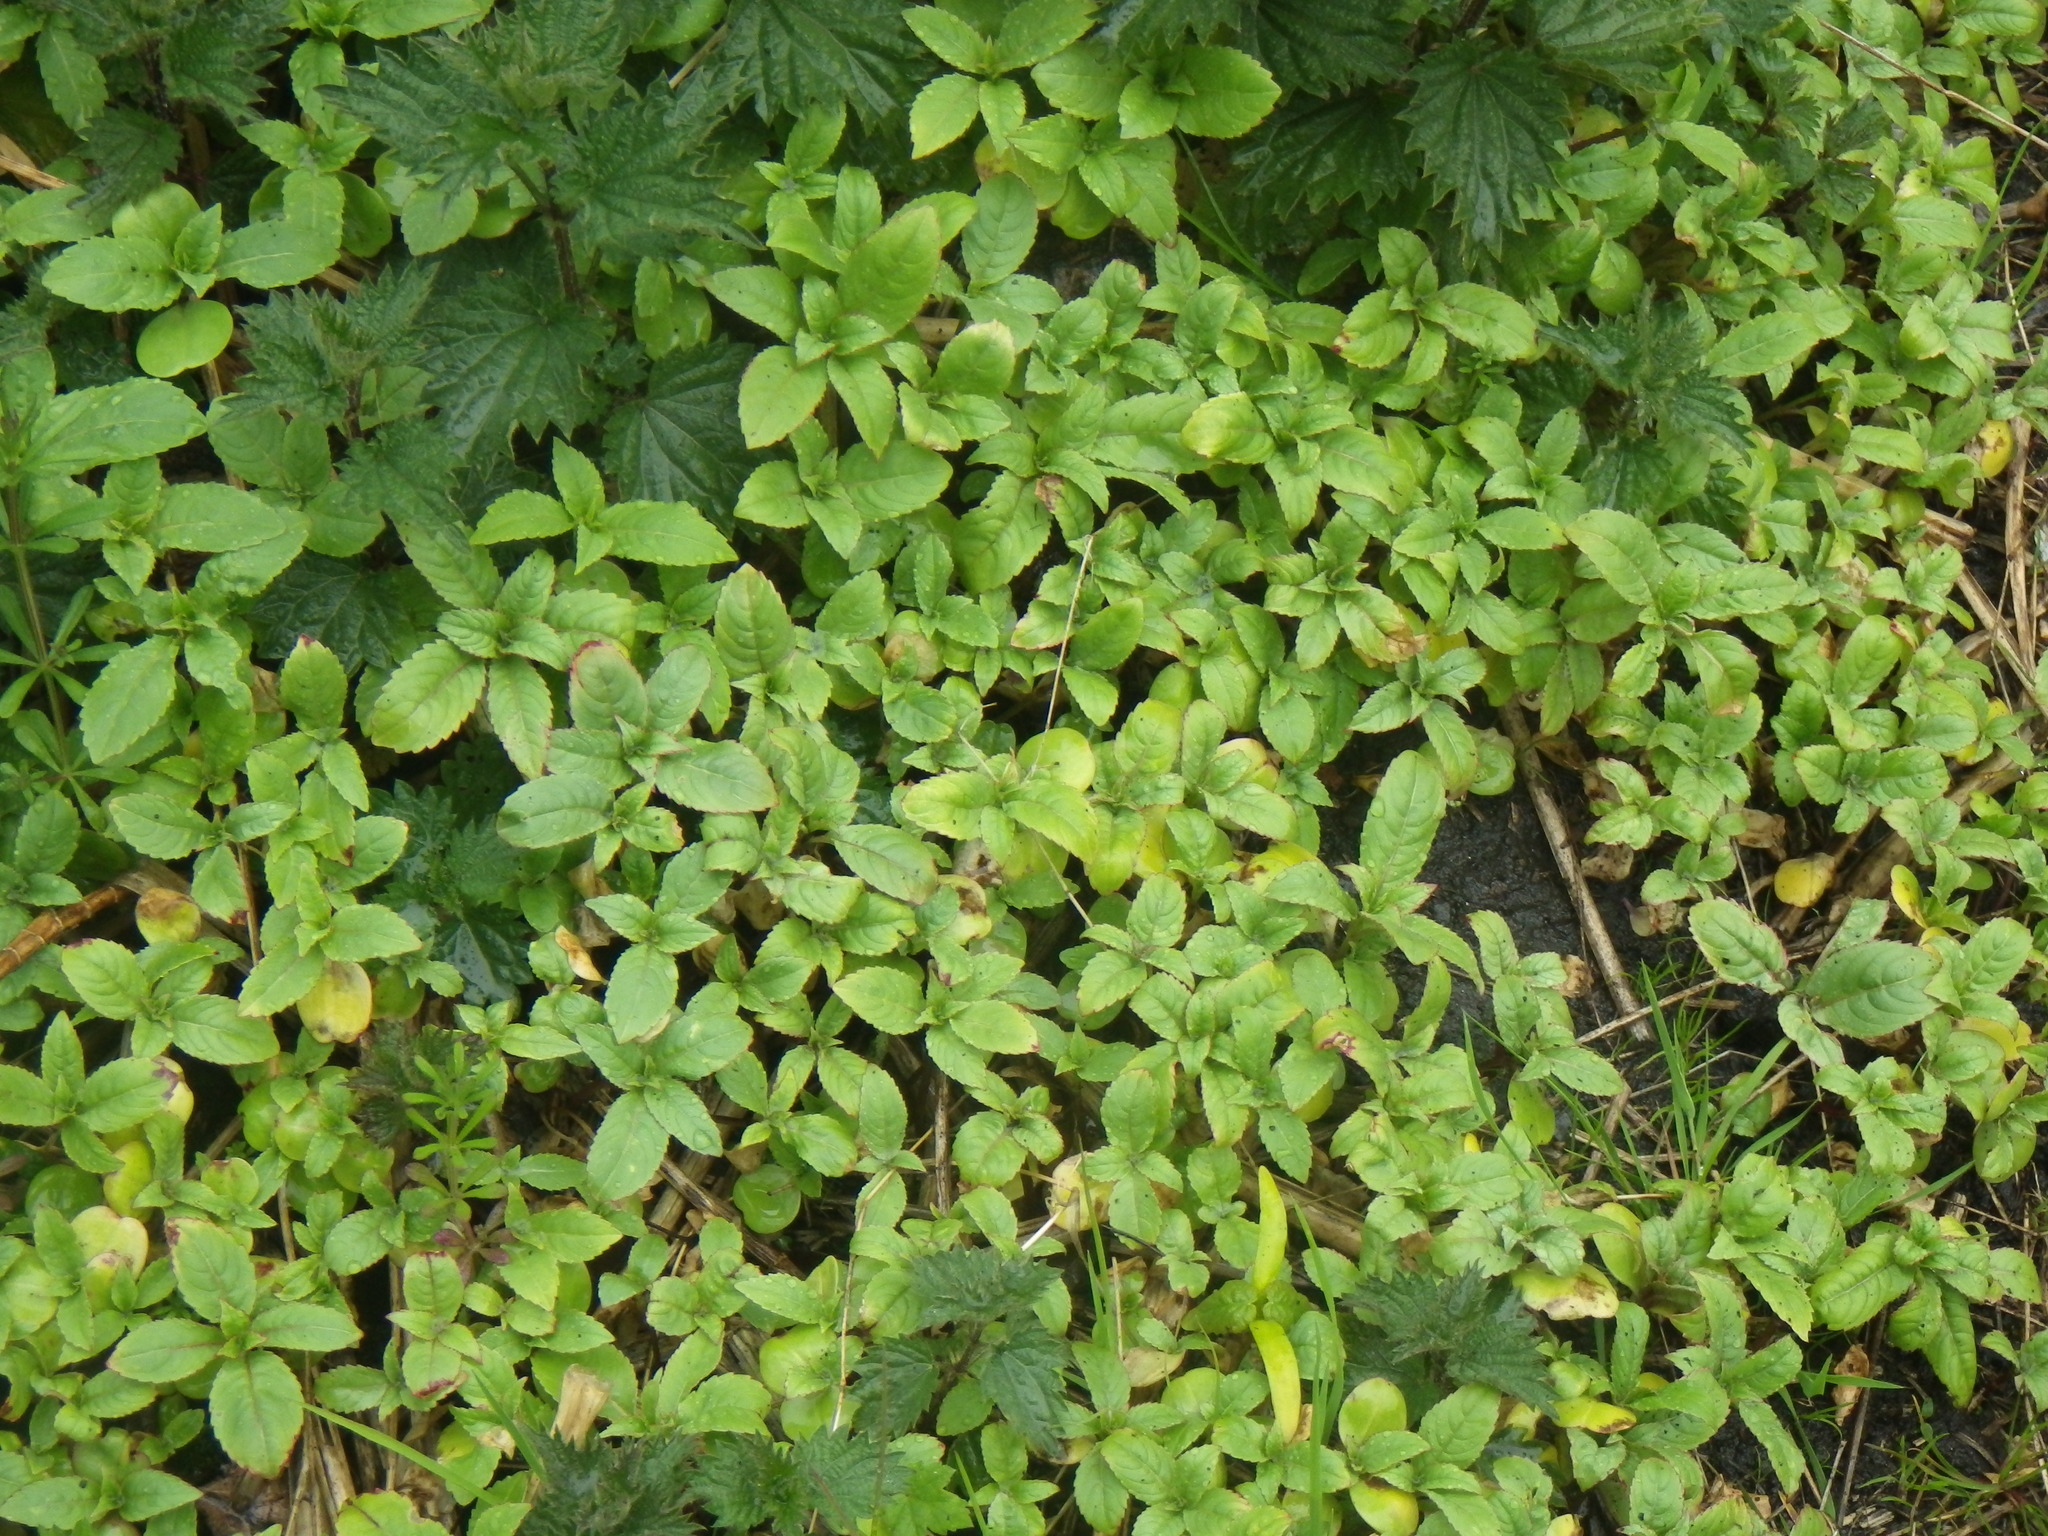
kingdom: Plantae
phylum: Tracheophyta
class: Magnoliopsida
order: Ericales
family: Balsaminaceae
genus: Impatiens
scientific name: Impatiens glandulifera
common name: Himalayan balsam
